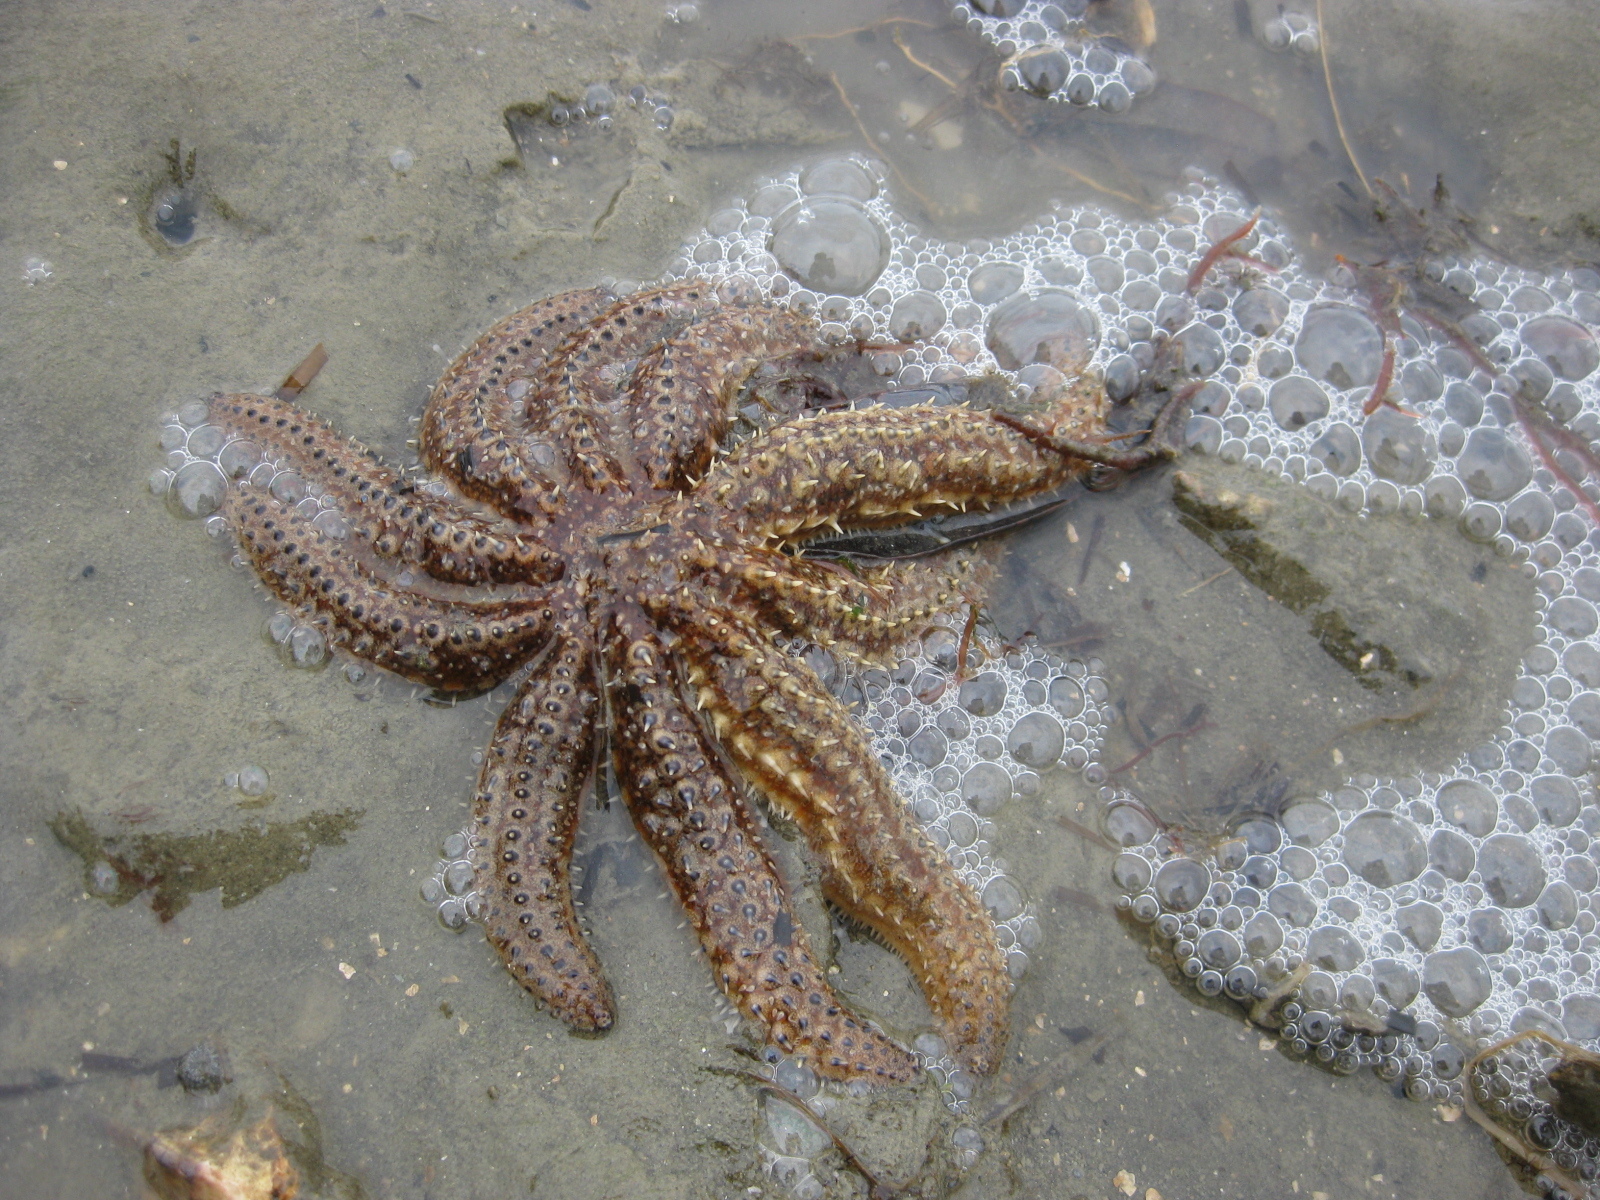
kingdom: Animalia
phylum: Echinodermata
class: Asteroidea
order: Forcipulatida
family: Asteriidae
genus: Coscinasterias
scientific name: Coscinasterias muricata
